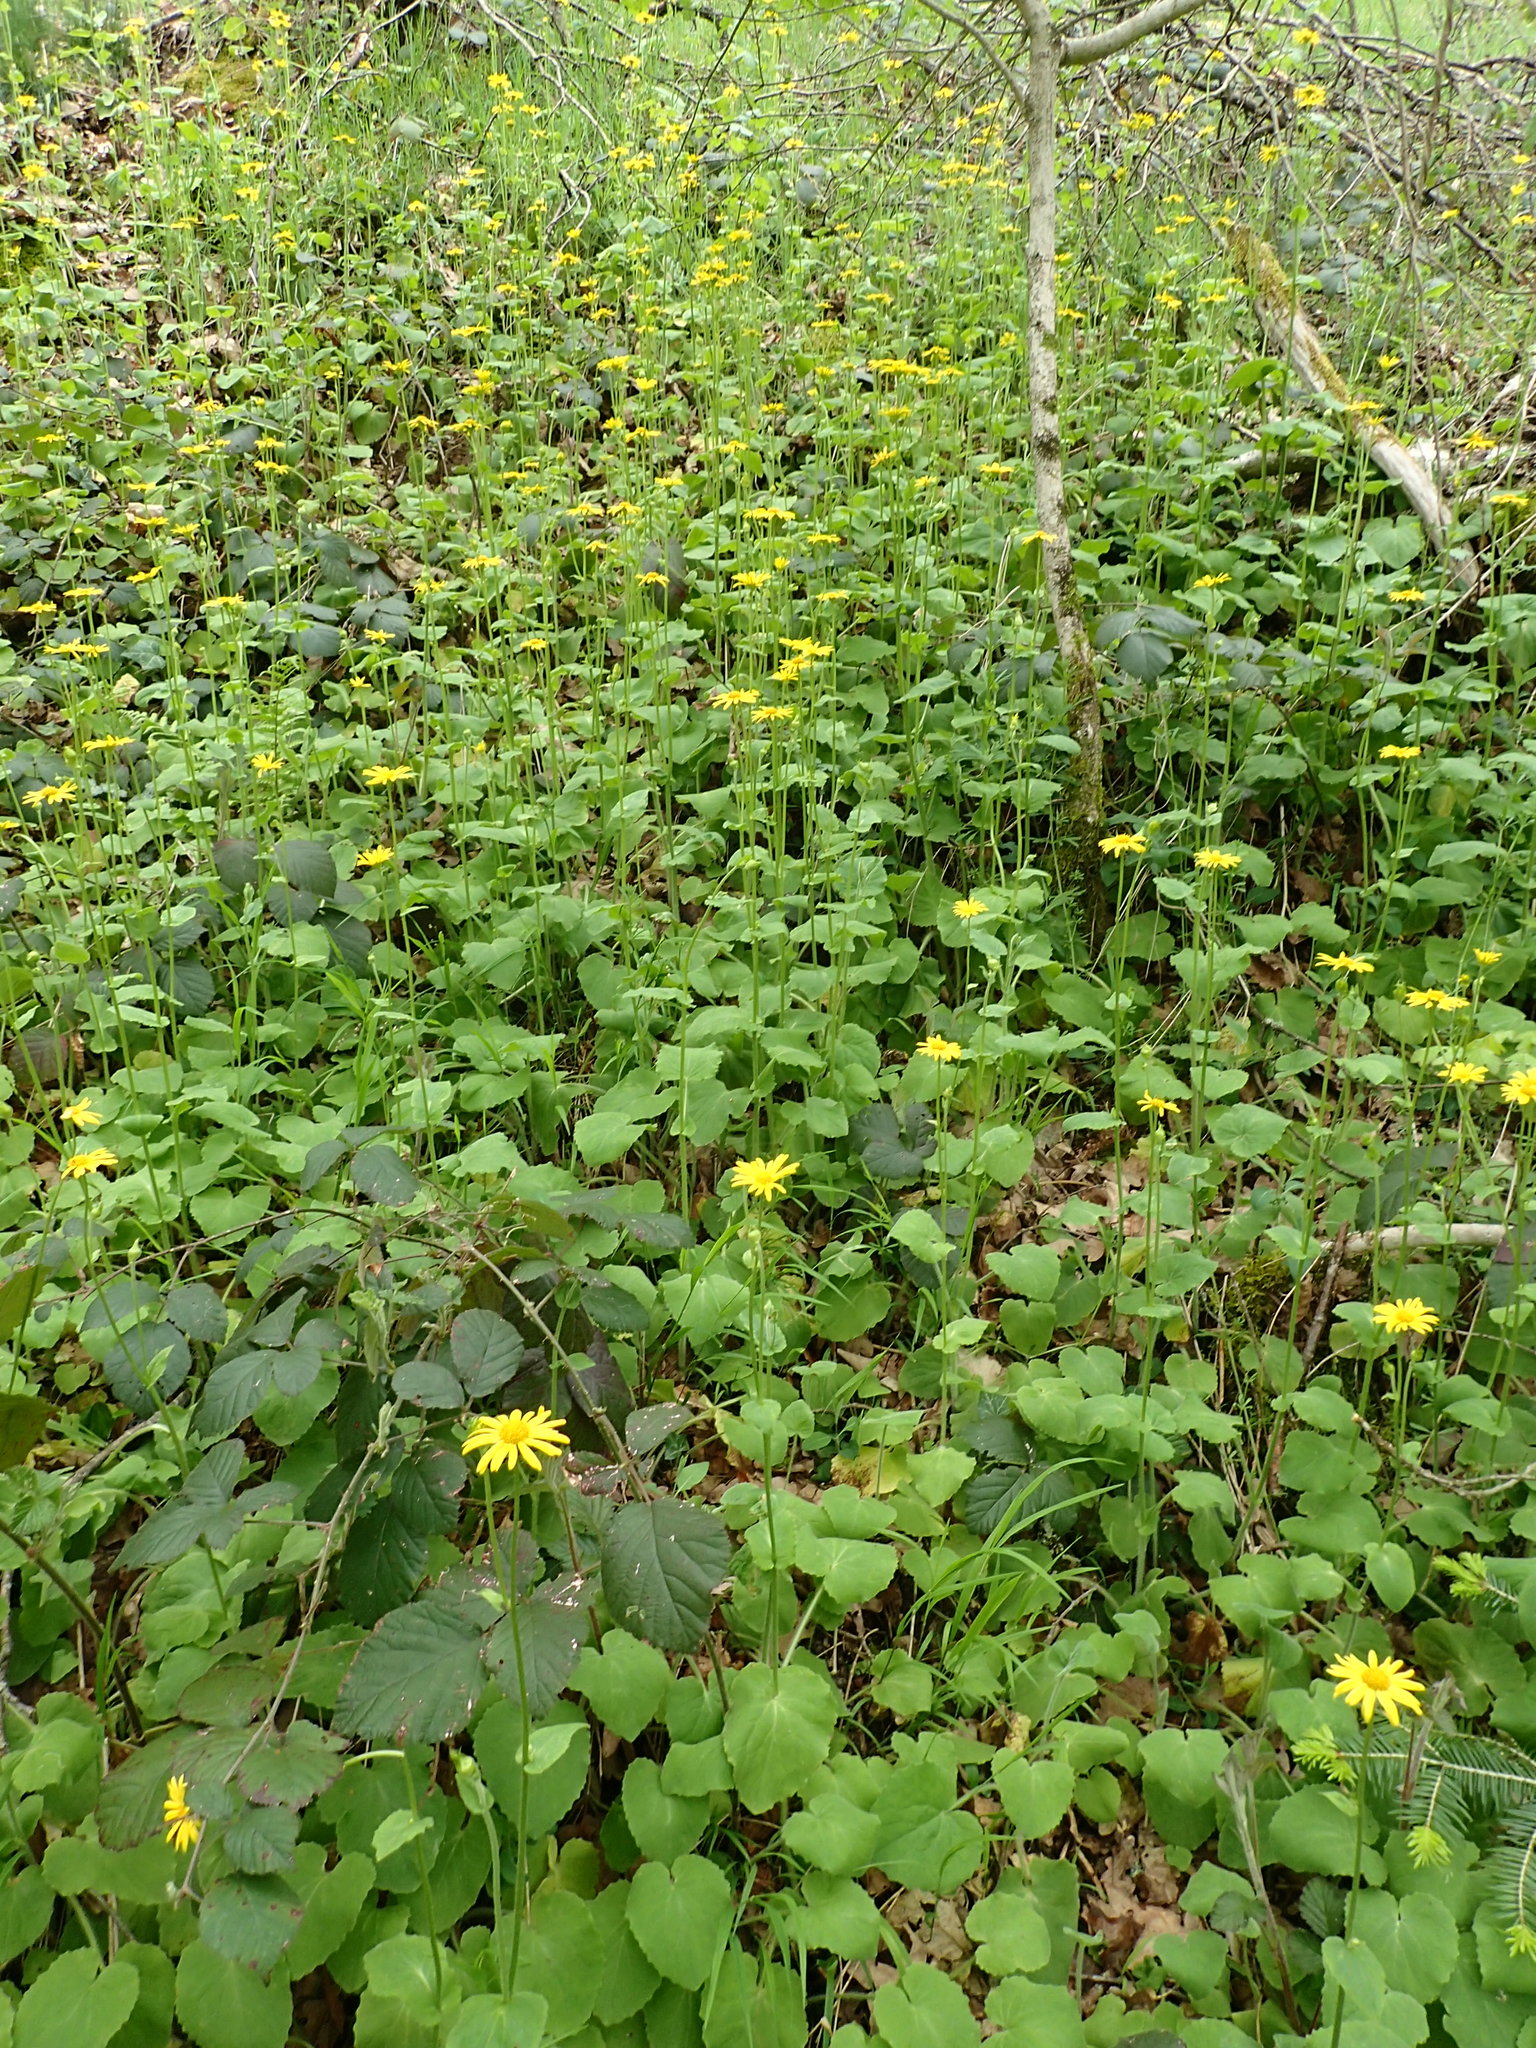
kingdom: Plantae
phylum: Tracheophyta
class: Magnoliopsida
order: Asterales
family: Asteraceae
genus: Doronicum
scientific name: Doronicum pardalianches
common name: Leopard's-bane
